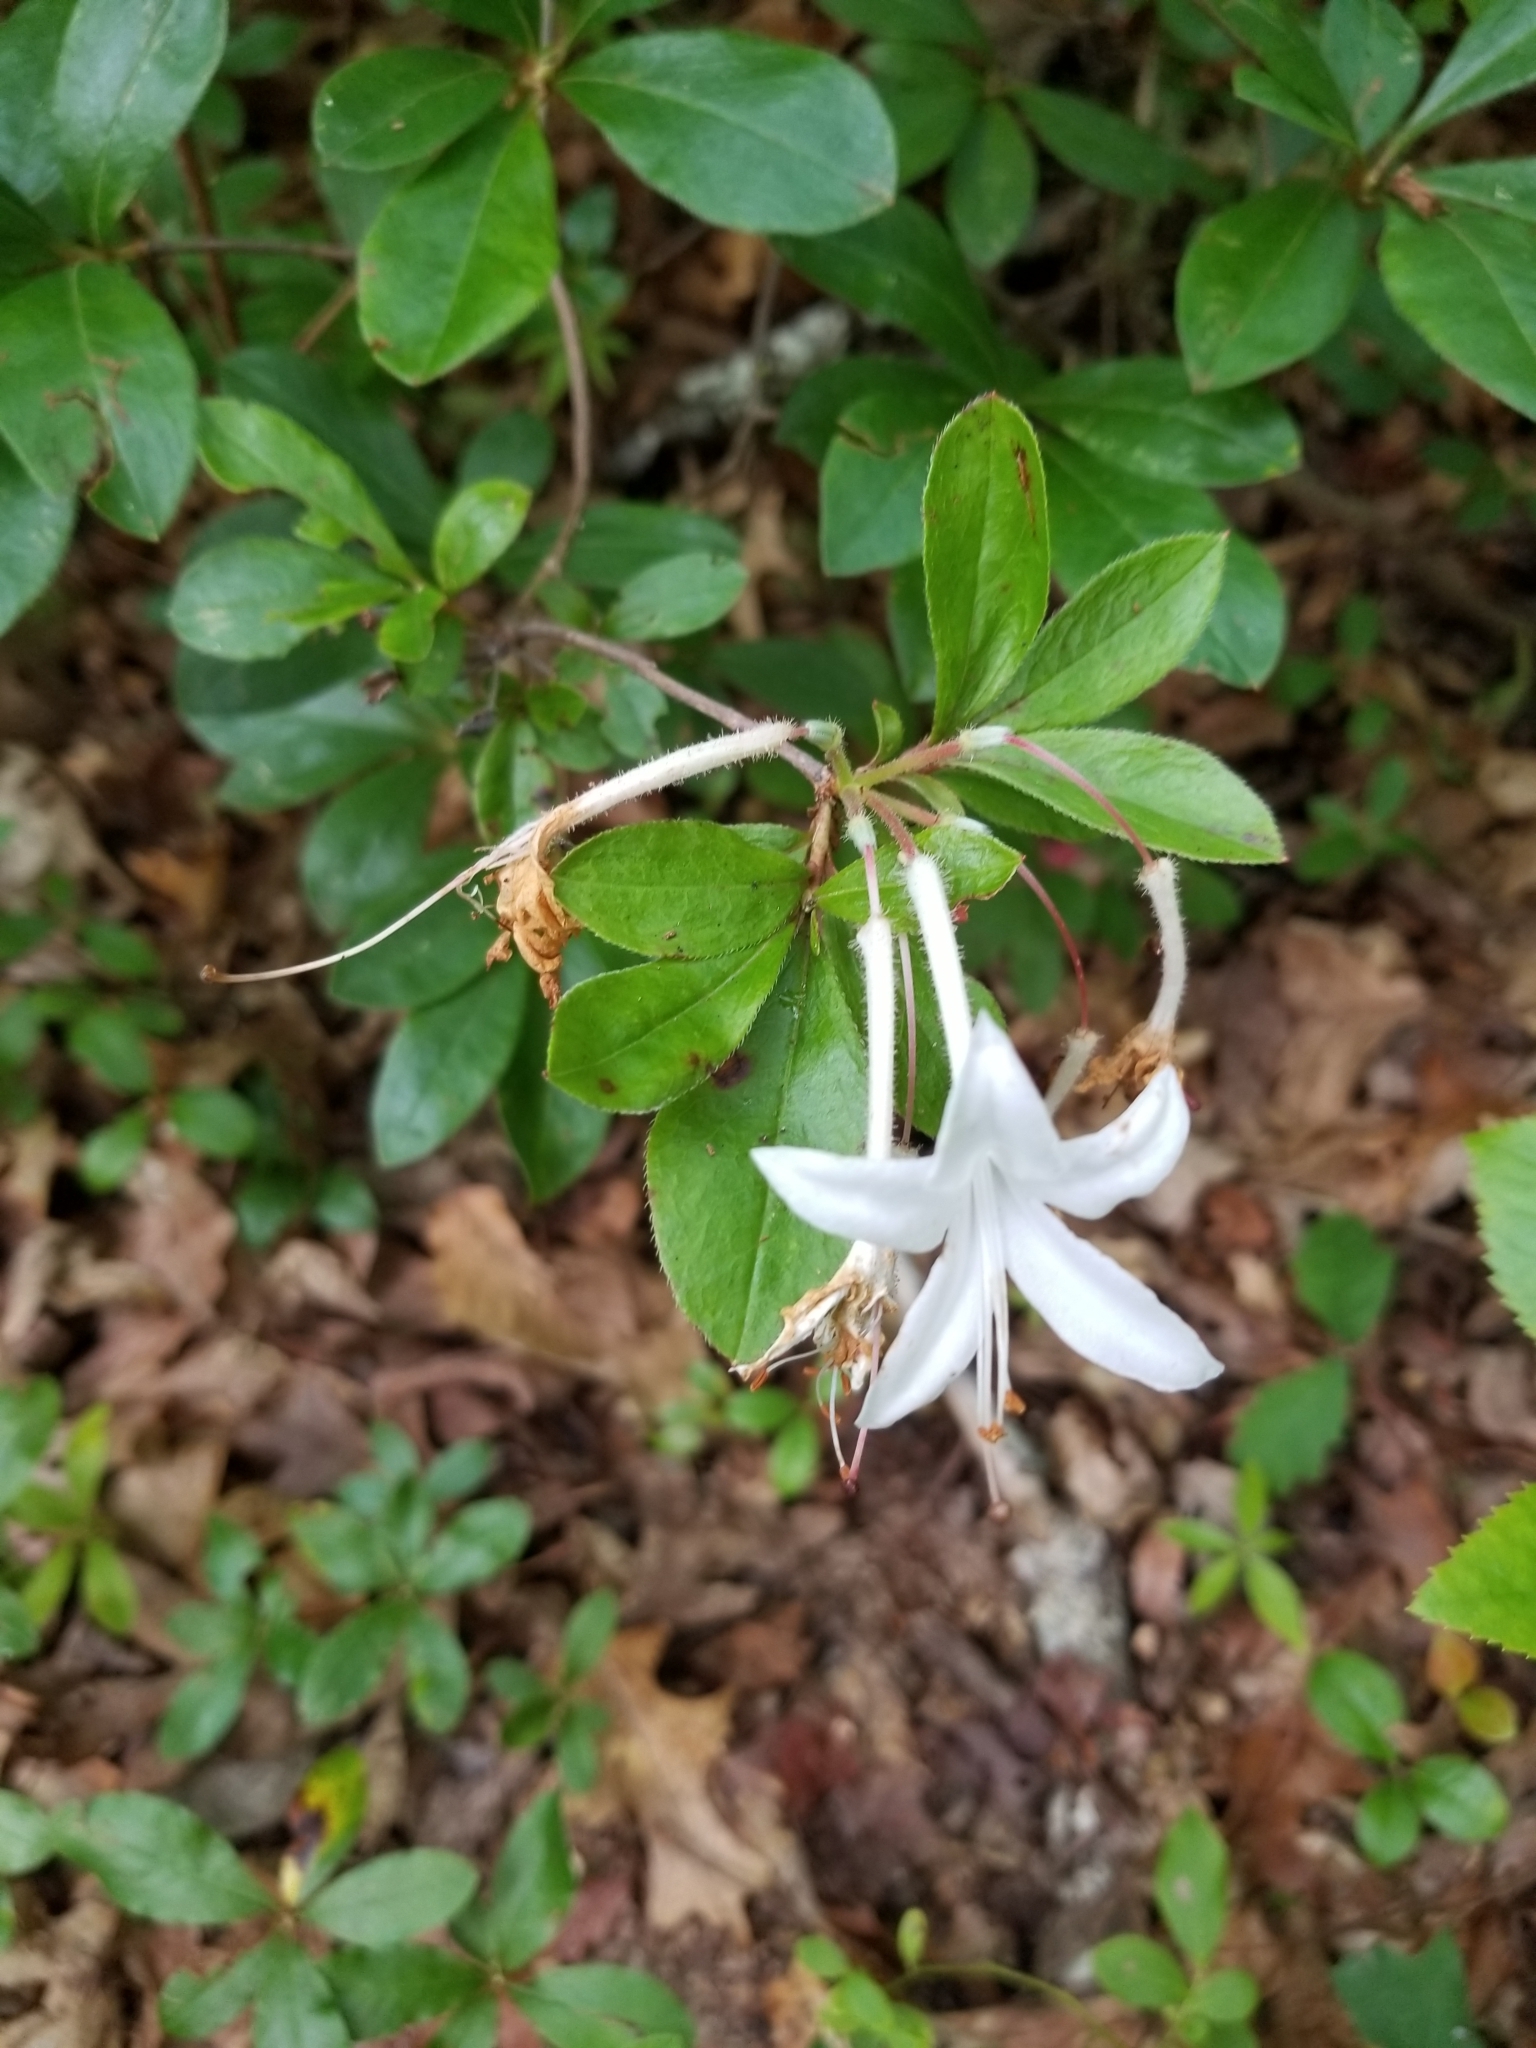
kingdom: Plantae
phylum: Tracheophyta
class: Magnoliopsida
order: Ericales
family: Ericaceae
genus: Rhododendron
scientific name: Rhododendron viscosum
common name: Clammy azalea
